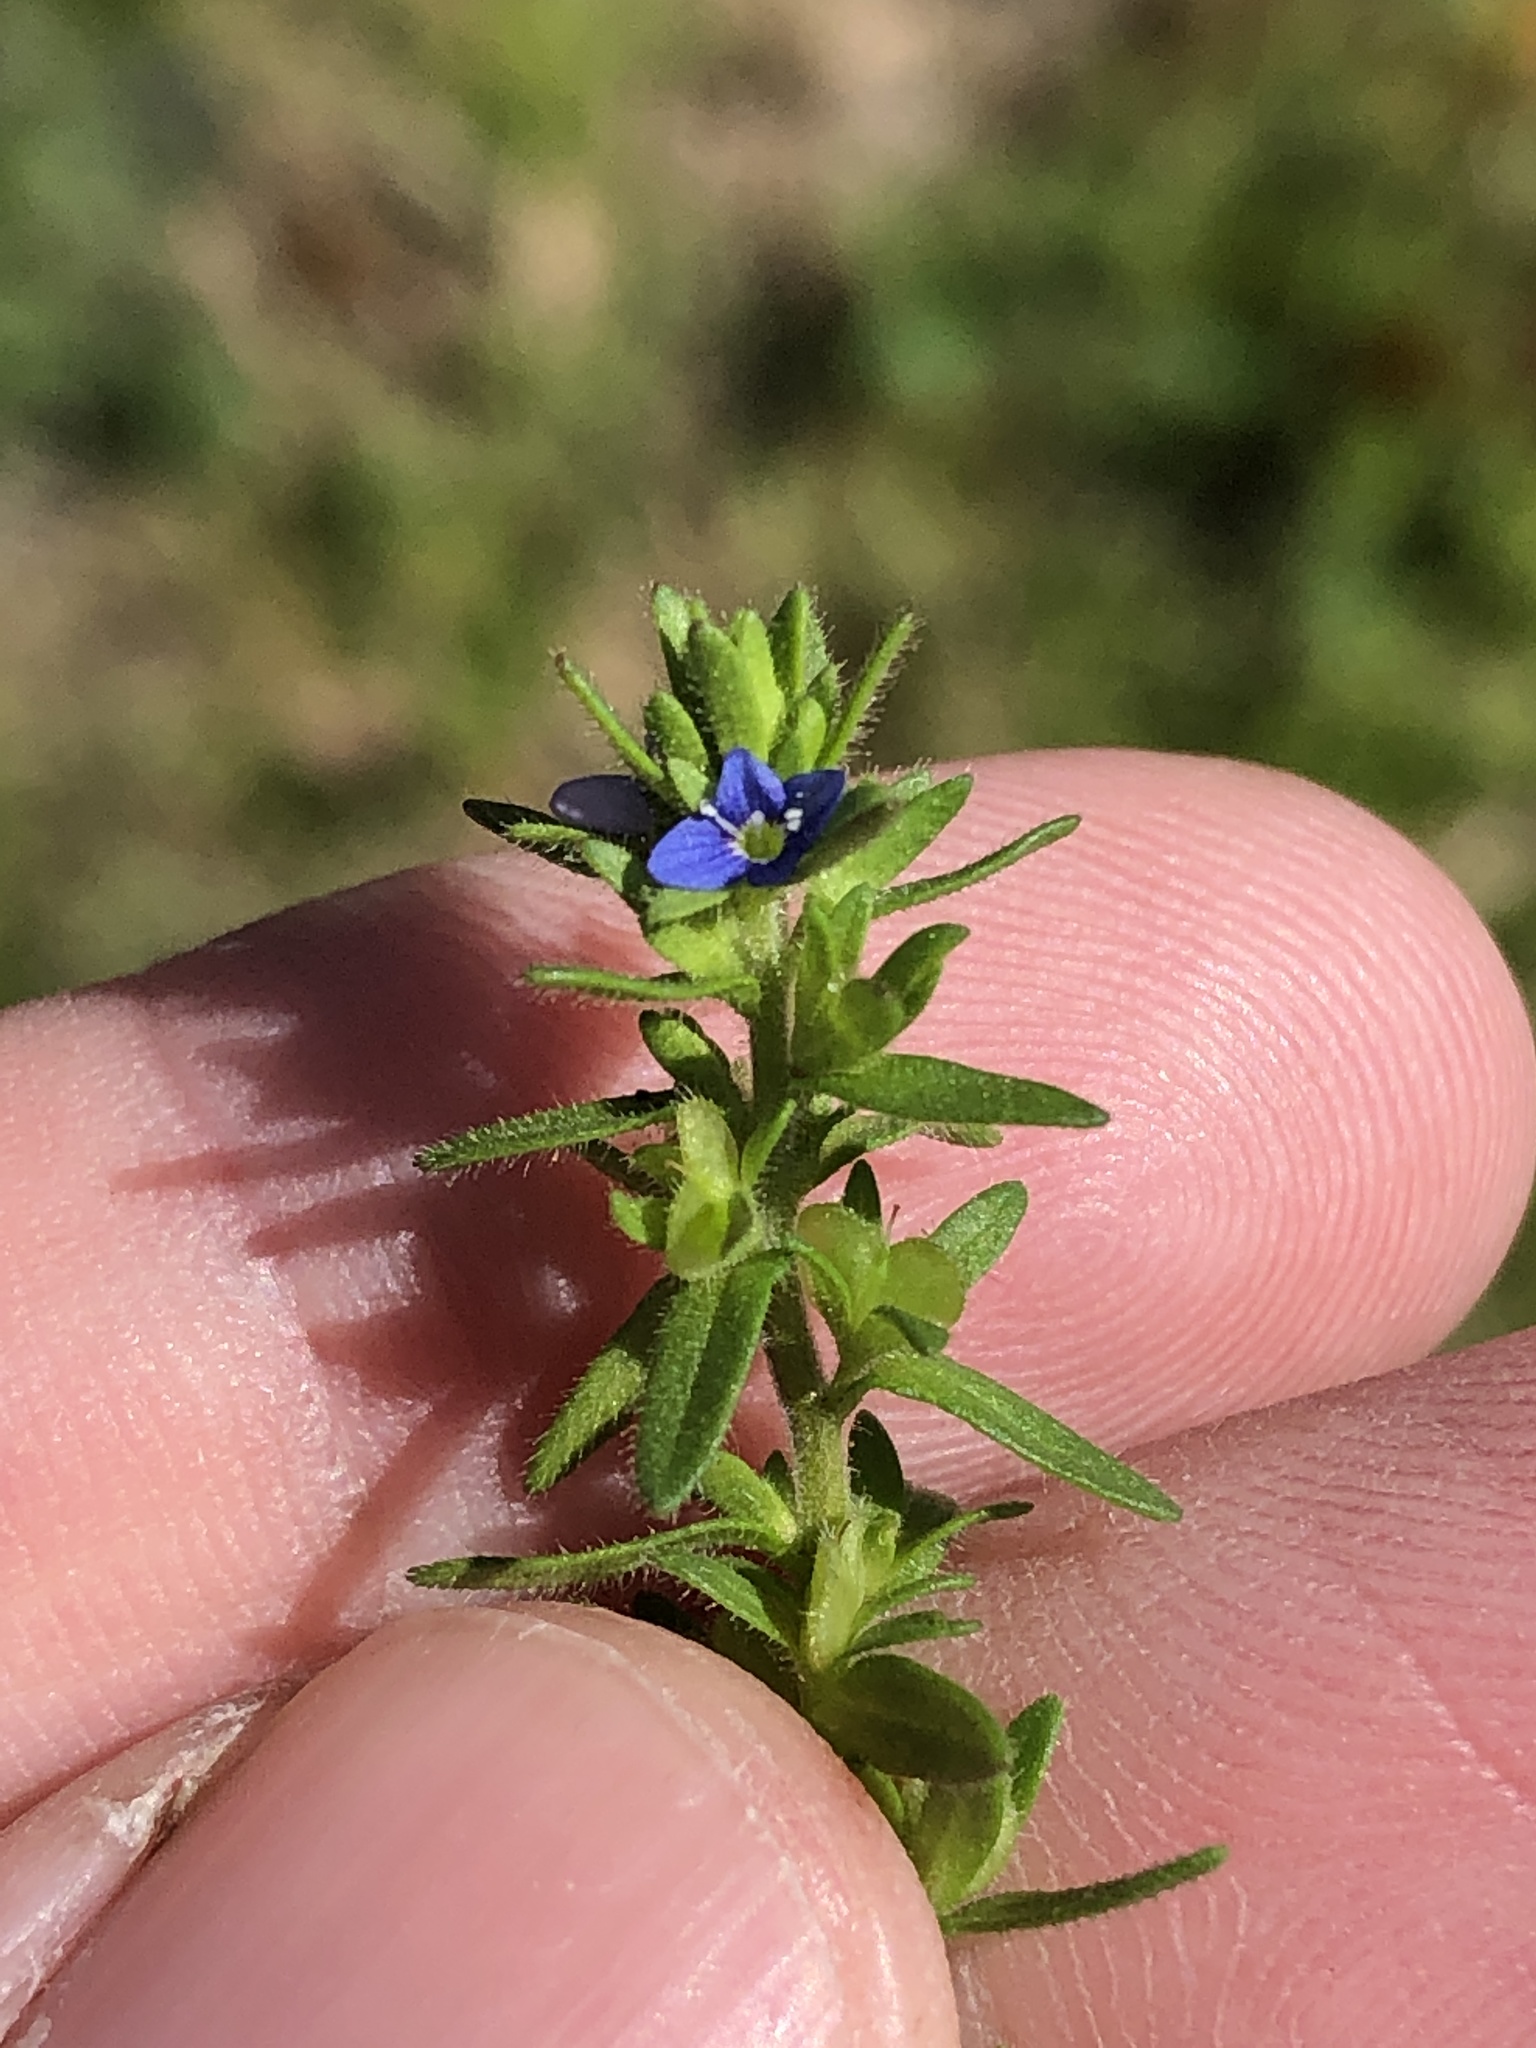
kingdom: Plantae
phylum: Tracheophyta
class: Magnoliopsida
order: Lamiales
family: Plantaginaceae
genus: Veronica
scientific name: Veronica arvensis
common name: Corn speedwell
